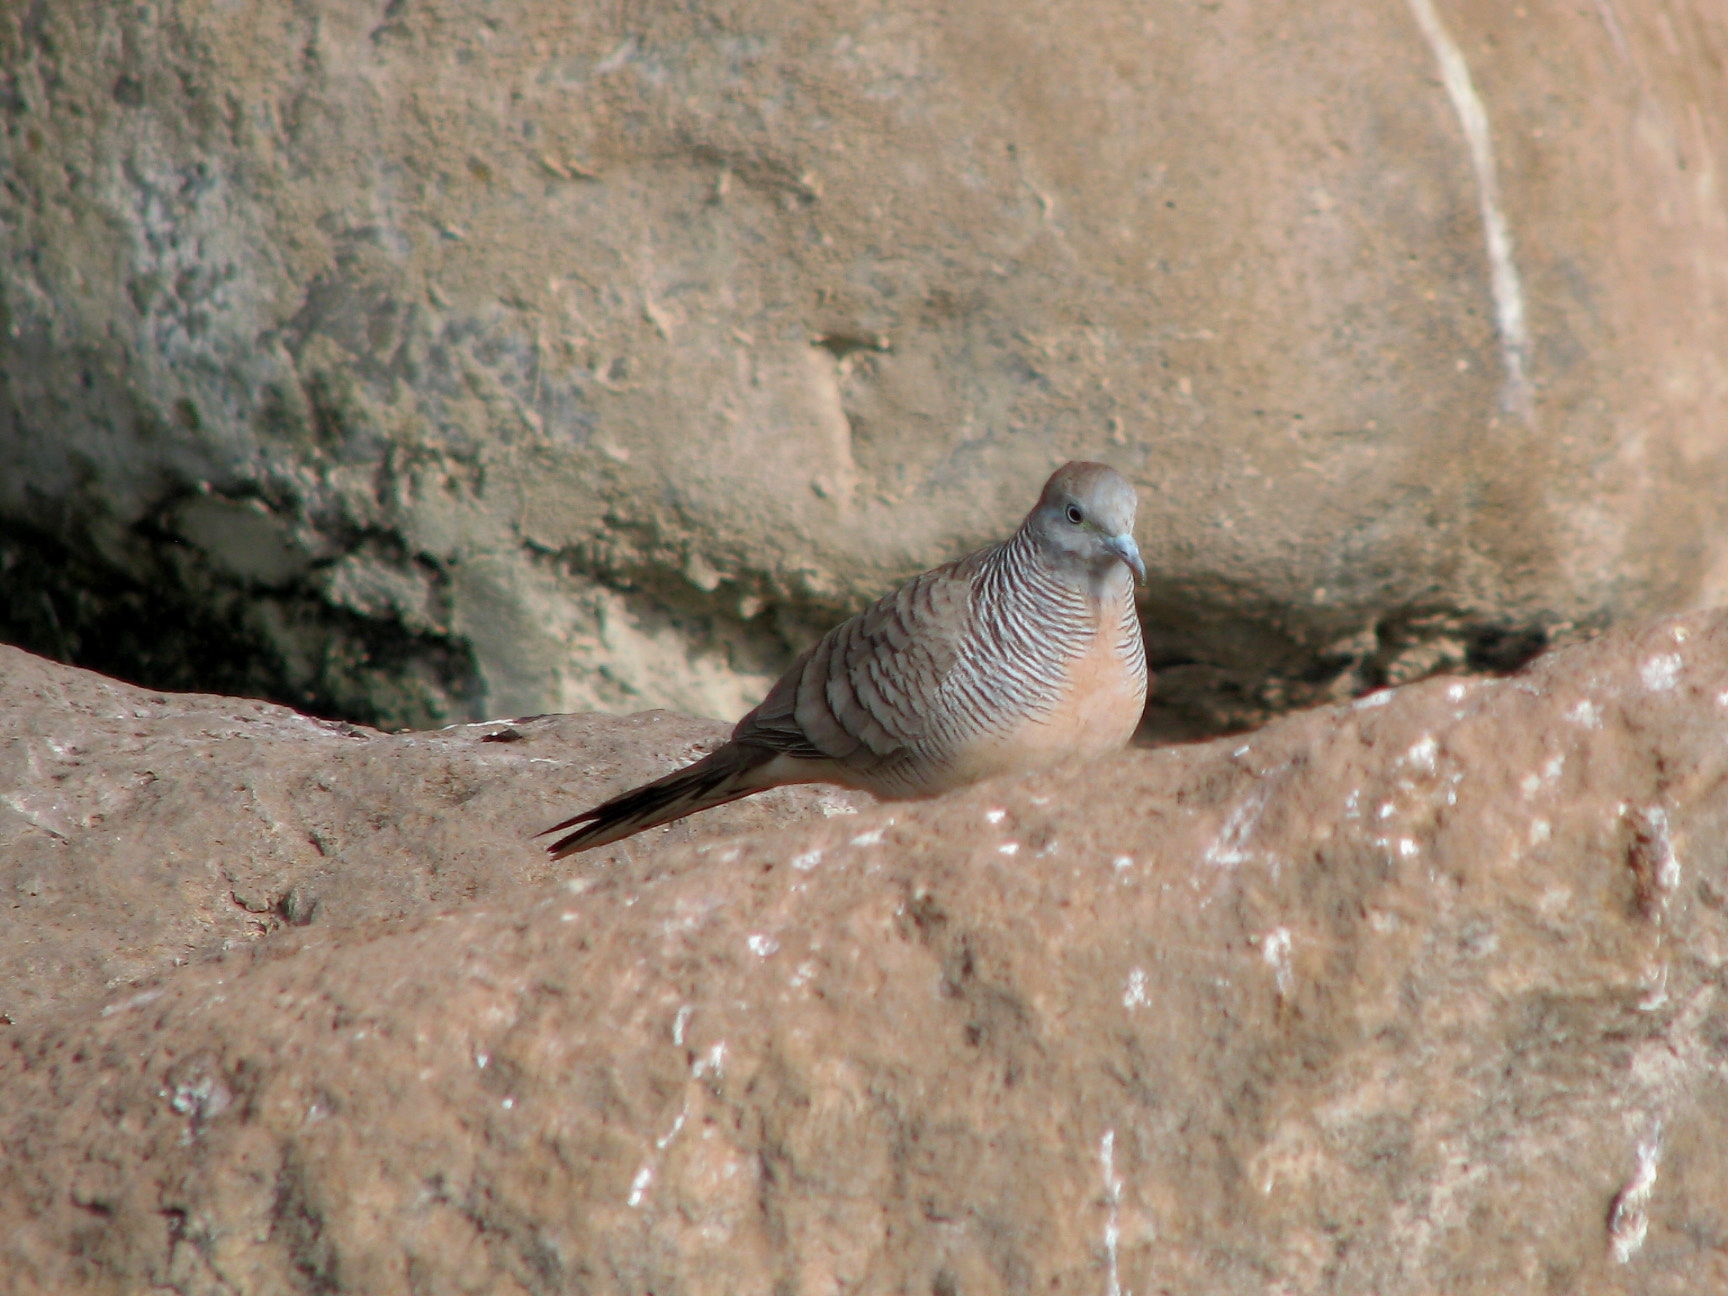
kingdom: Animalia
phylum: Chordata
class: Aves
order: Columbiformes
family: Columbidae
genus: Geopelia
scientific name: Geopelia striata
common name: Zebra dove
